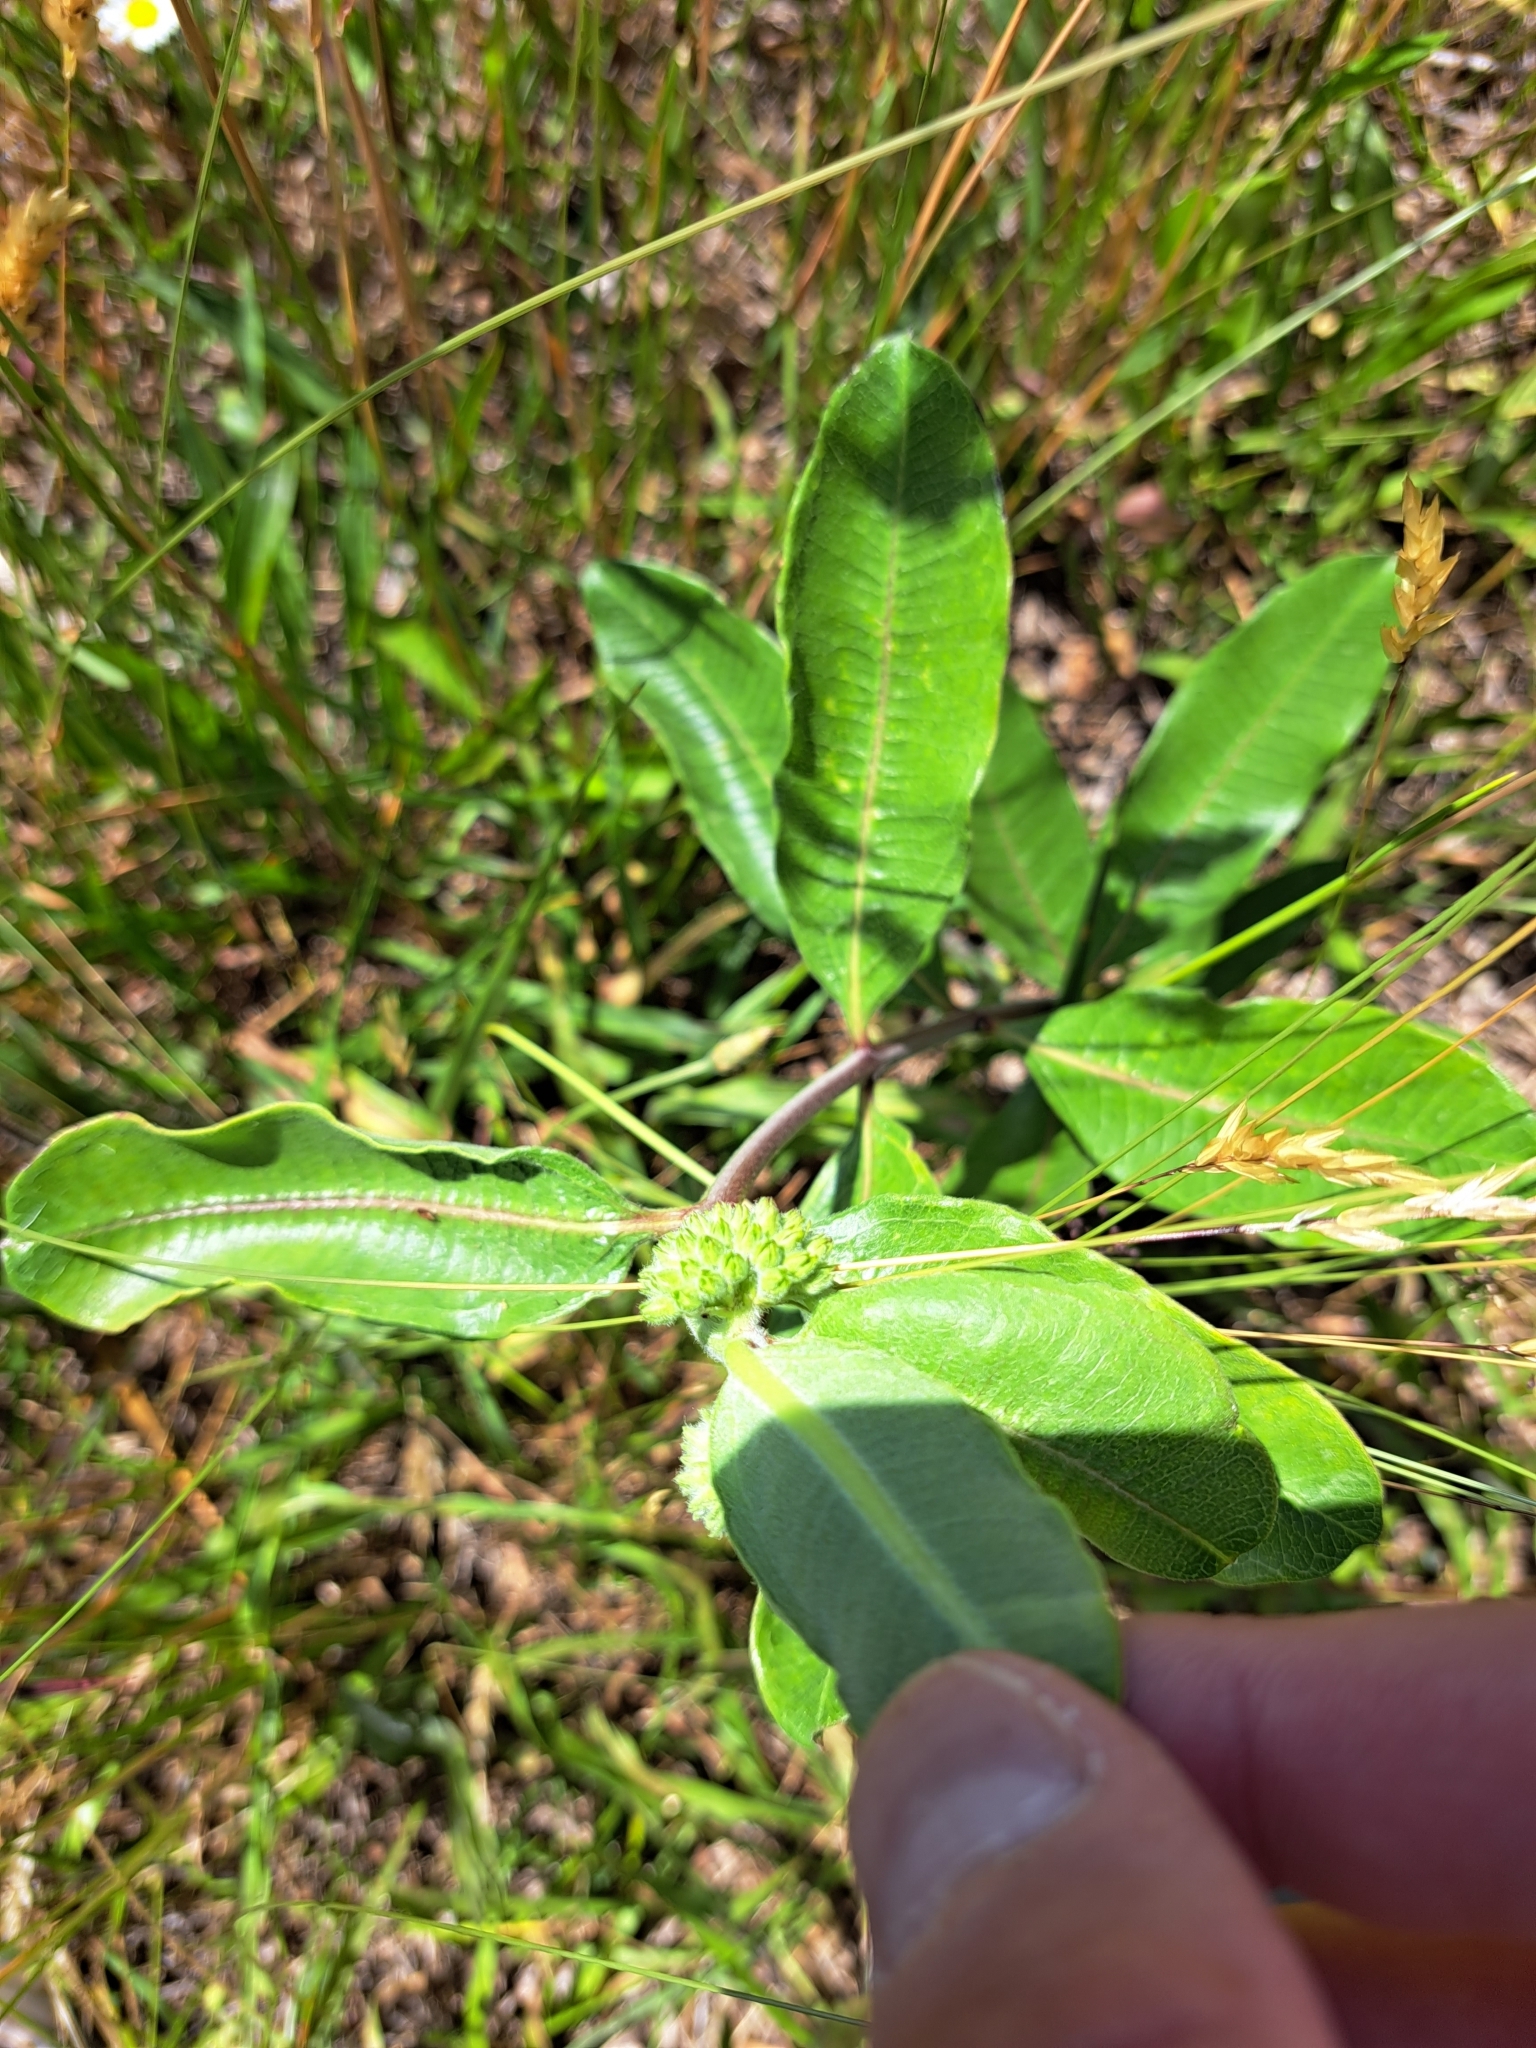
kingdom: Plantae
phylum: Tracheophyta
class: Magnoliopsida
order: Gentianales
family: Apocynaceae
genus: Asclepias
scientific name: Asclepias viridiflora
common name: Green comet milkweed
